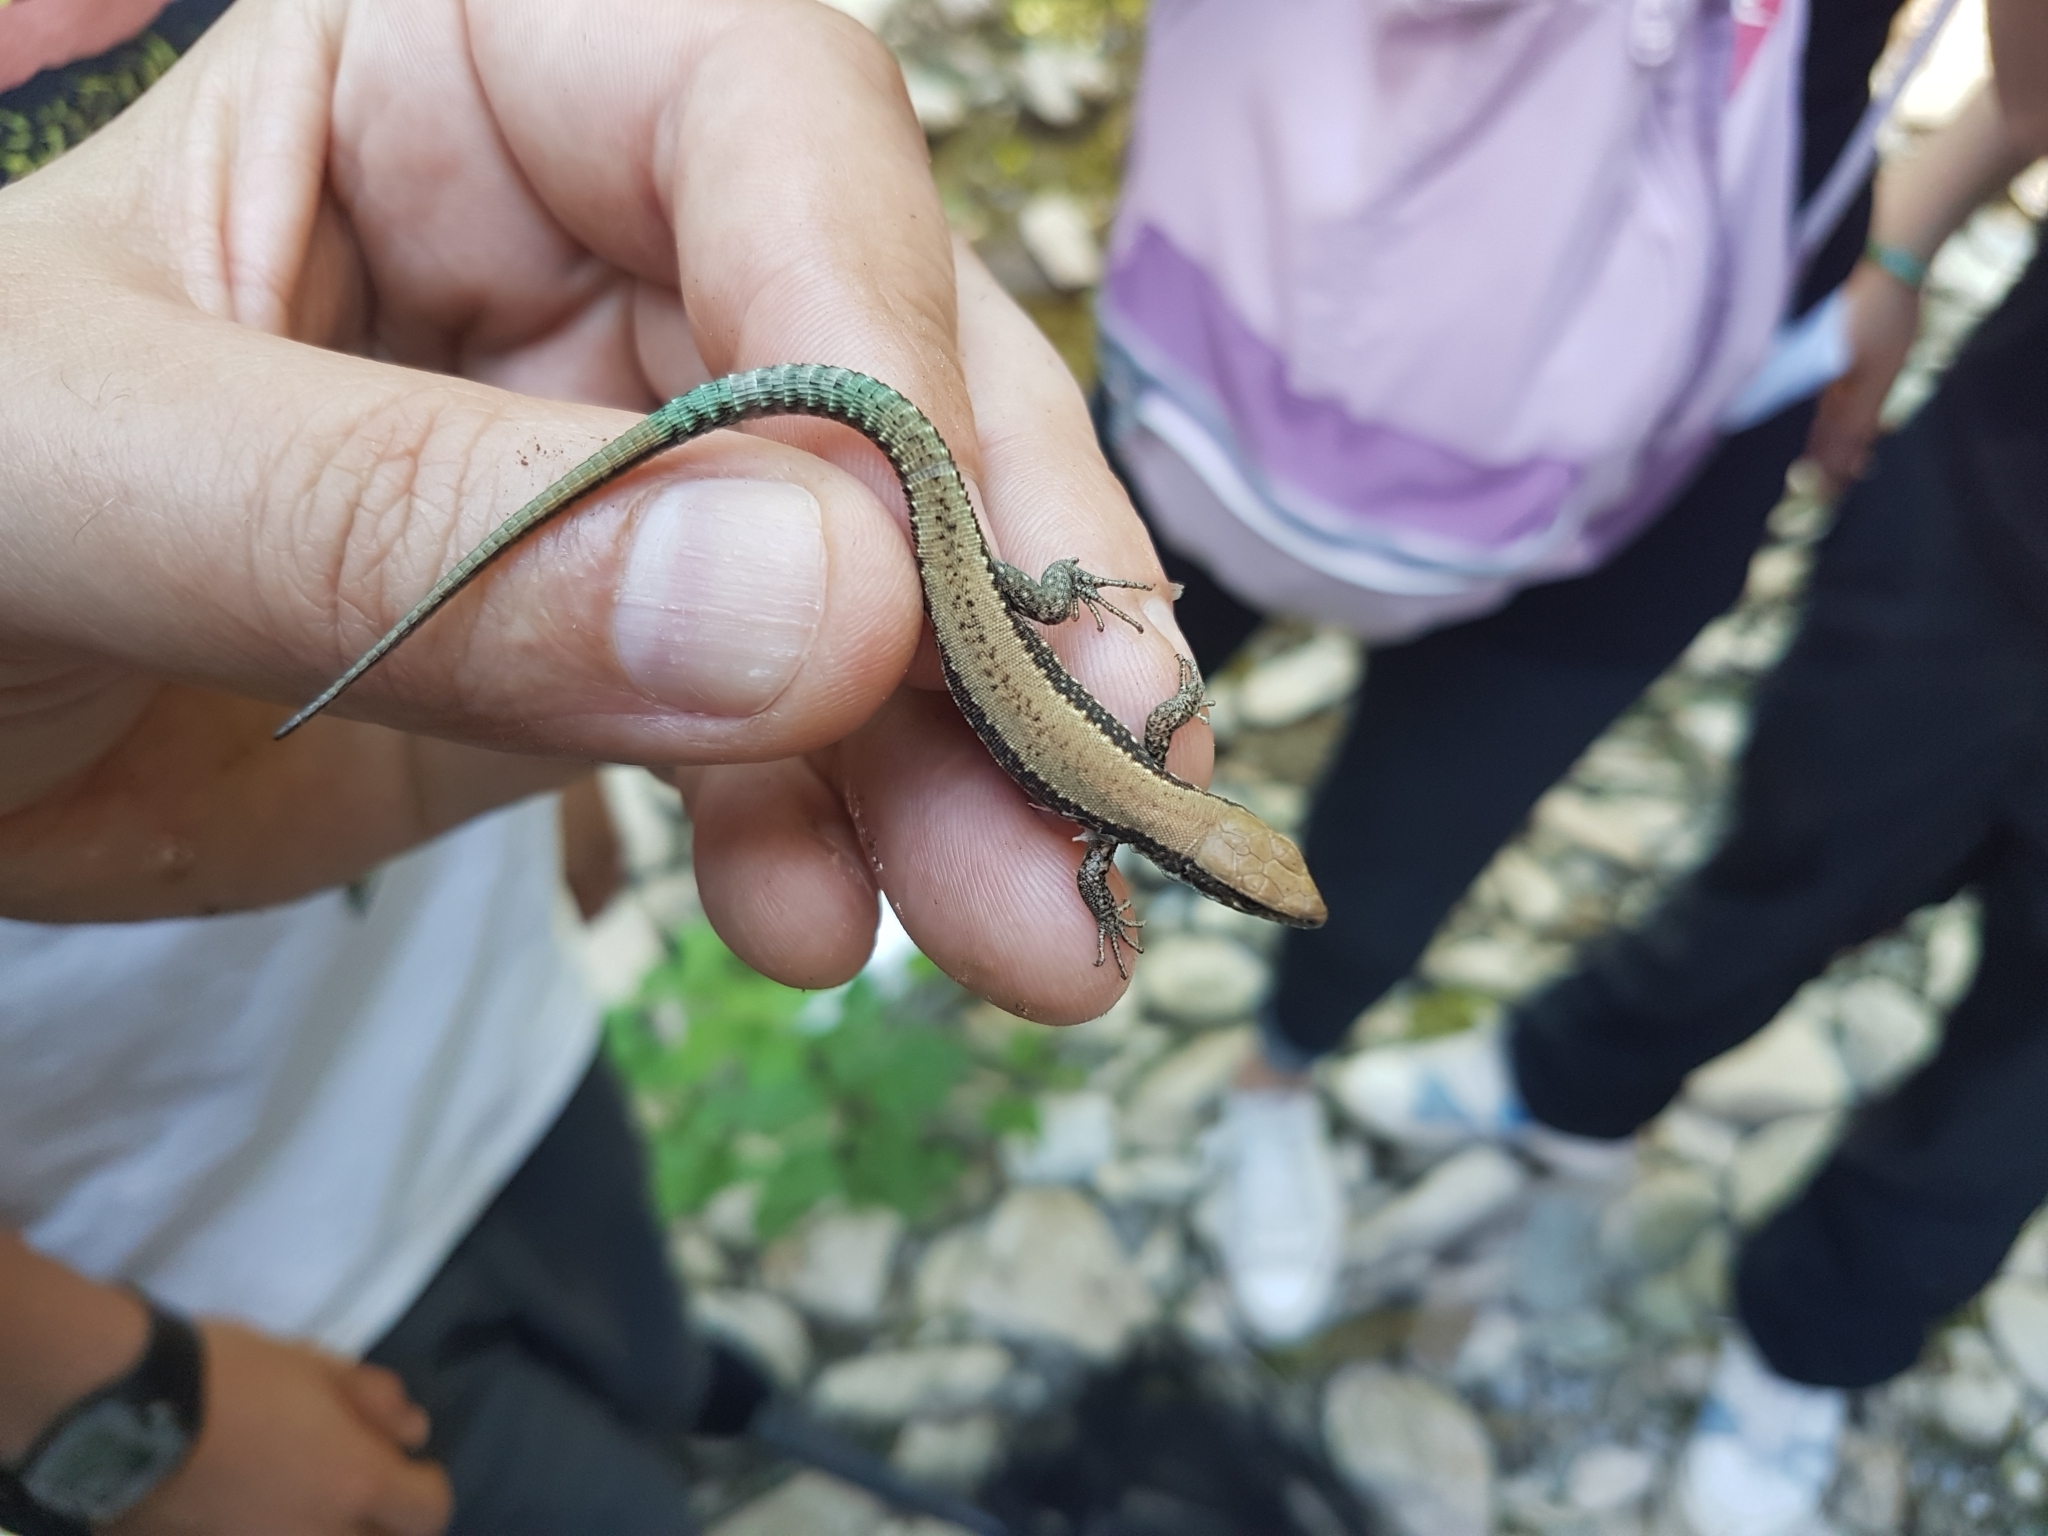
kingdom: Animalia
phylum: Chordata
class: Squamata
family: Lacertidae
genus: Iberolacerta
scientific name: Iberolacerta monticola
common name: Iberian mountain lizard
